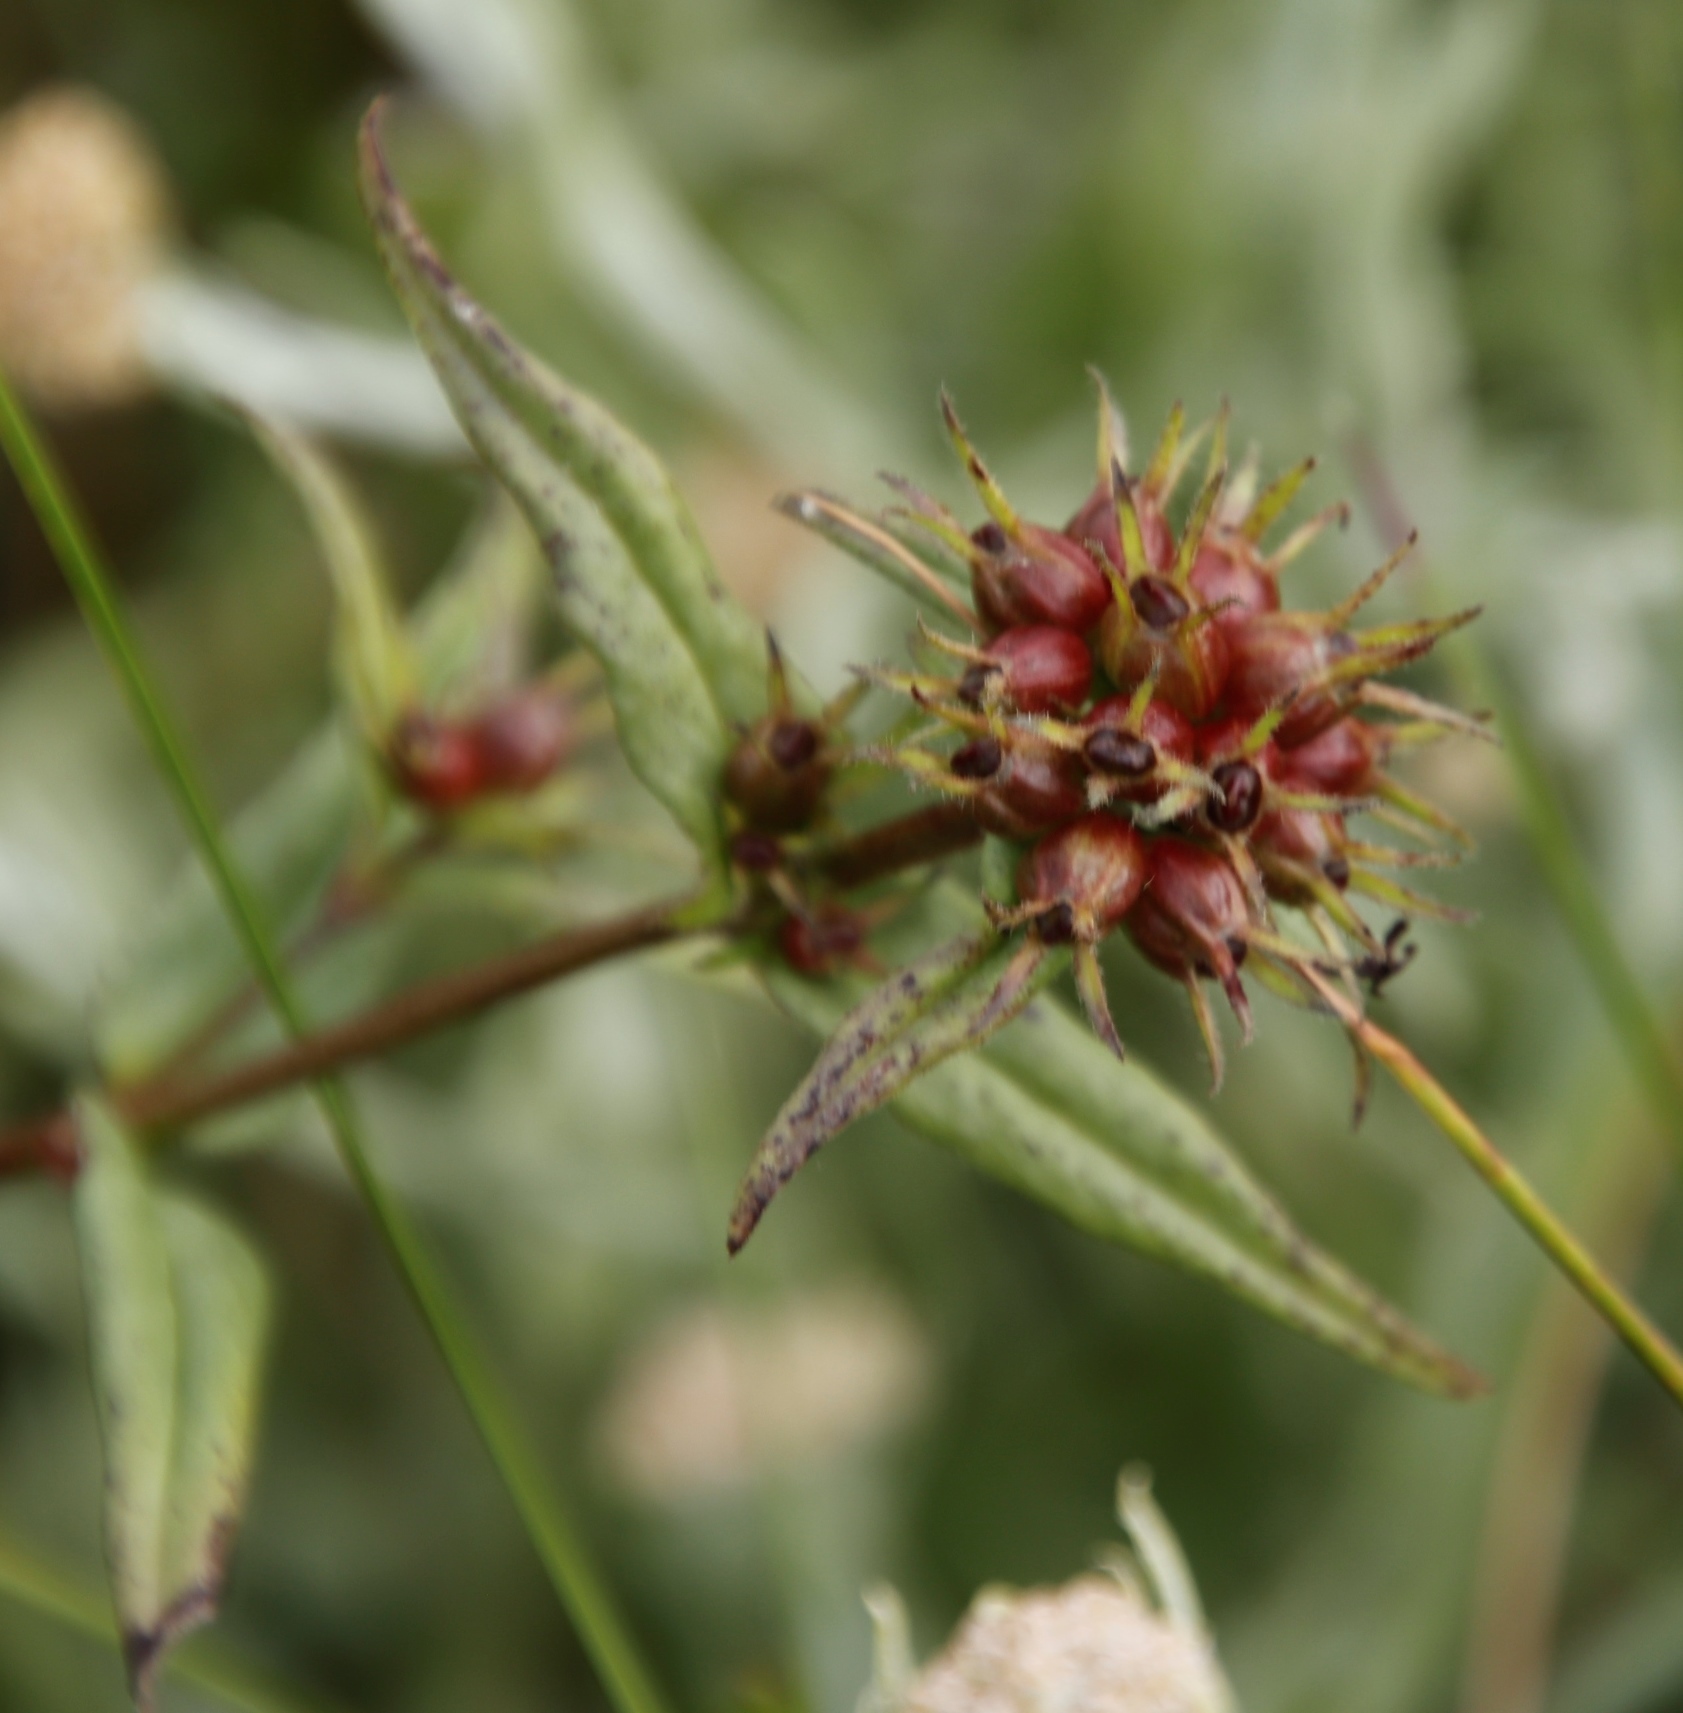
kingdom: Plantae
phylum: Tracheophyta
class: Magnoliopsida
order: Gentianales
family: Rubiaceae
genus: Conostomium
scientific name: Conostomium natalense
